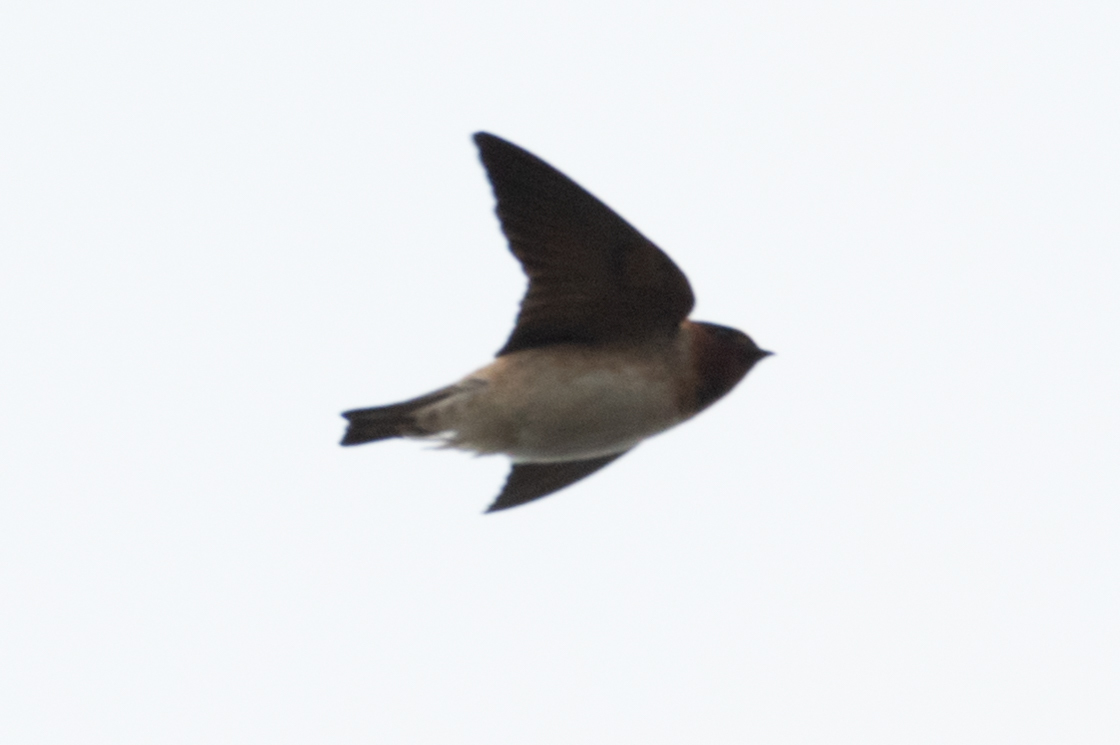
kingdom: Animalia
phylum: Chordata
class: Aves
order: Passeriformes
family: Hirundinidae
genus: Petrochelidon
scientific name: Petrochelidon pyrrhonota
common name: American cliff swallow
